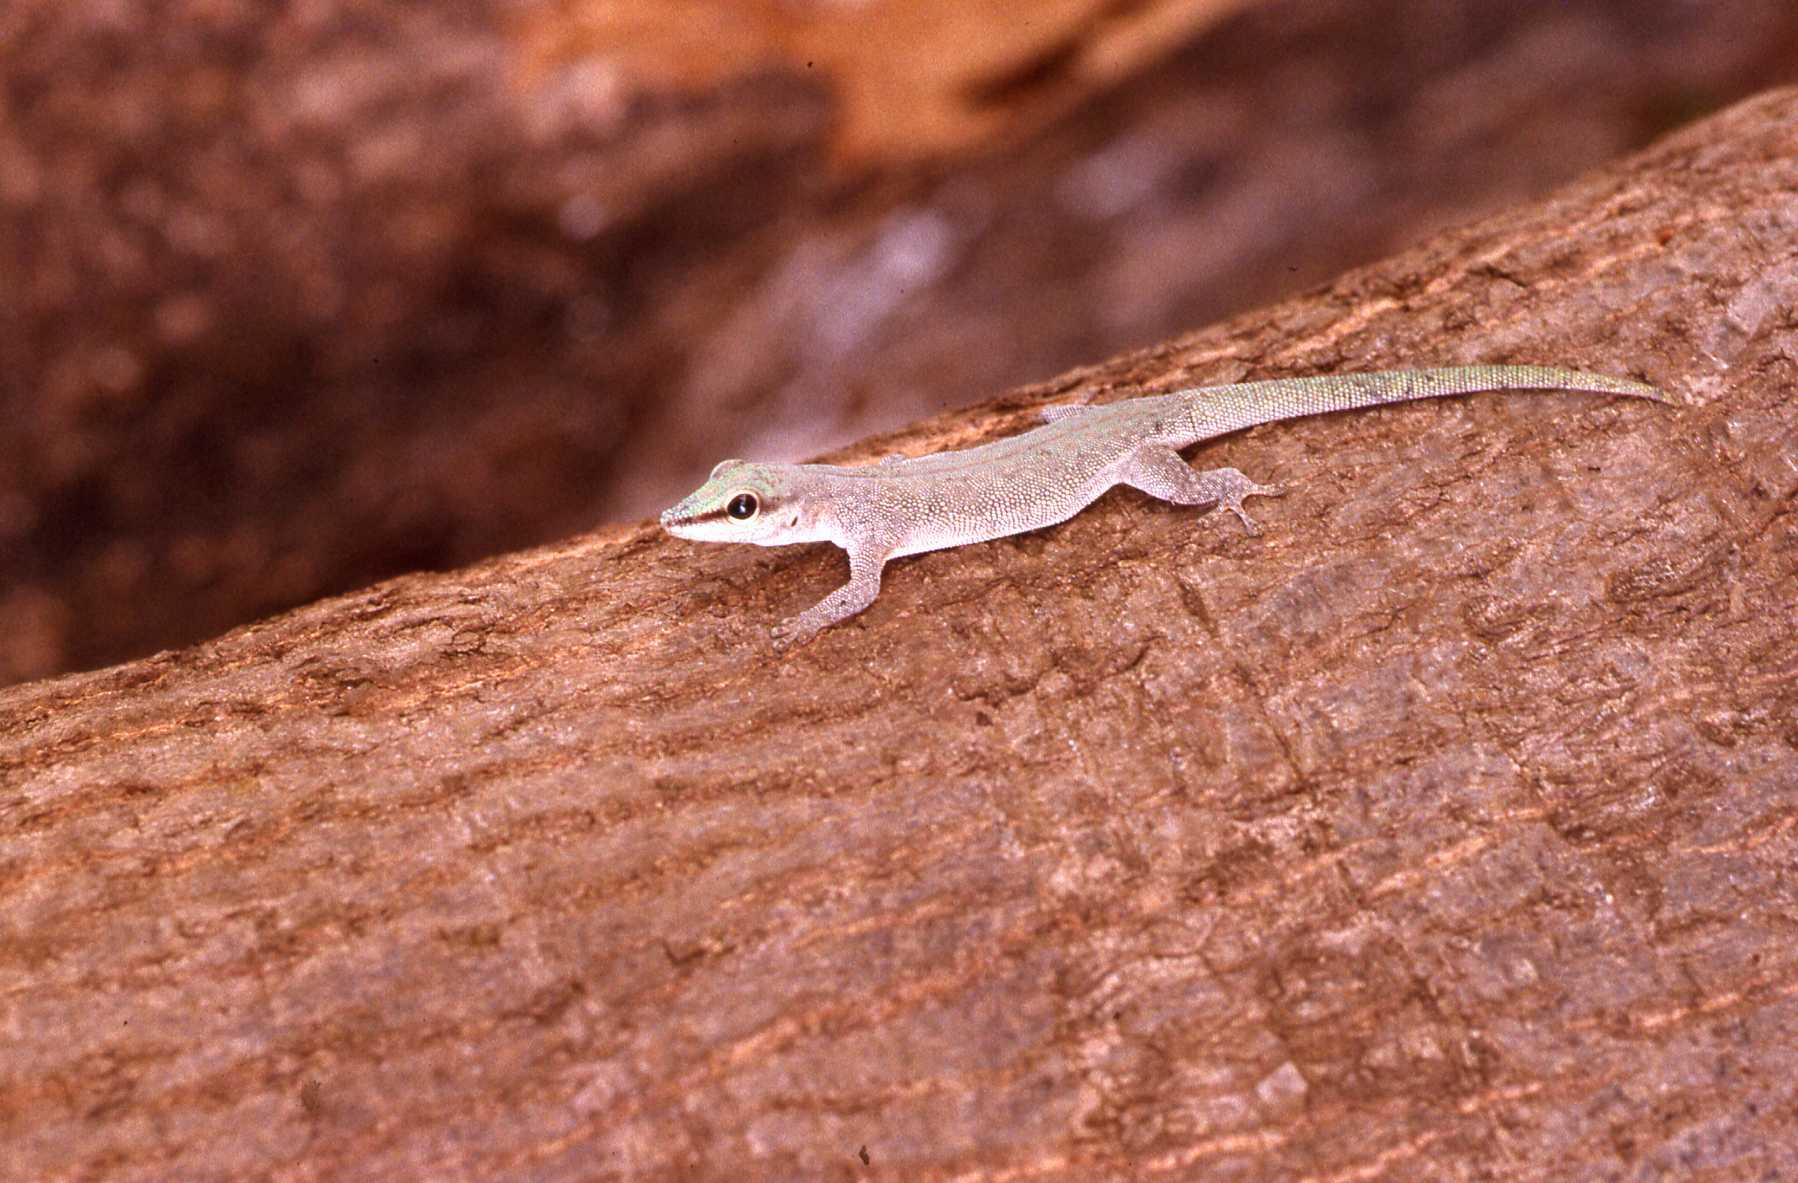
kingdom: Animalia
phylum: Chordata
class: Squamata
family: Gekkonidae
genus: Phelsuma
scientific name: Phelsuma abbotti
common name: Aldabra day gecko
